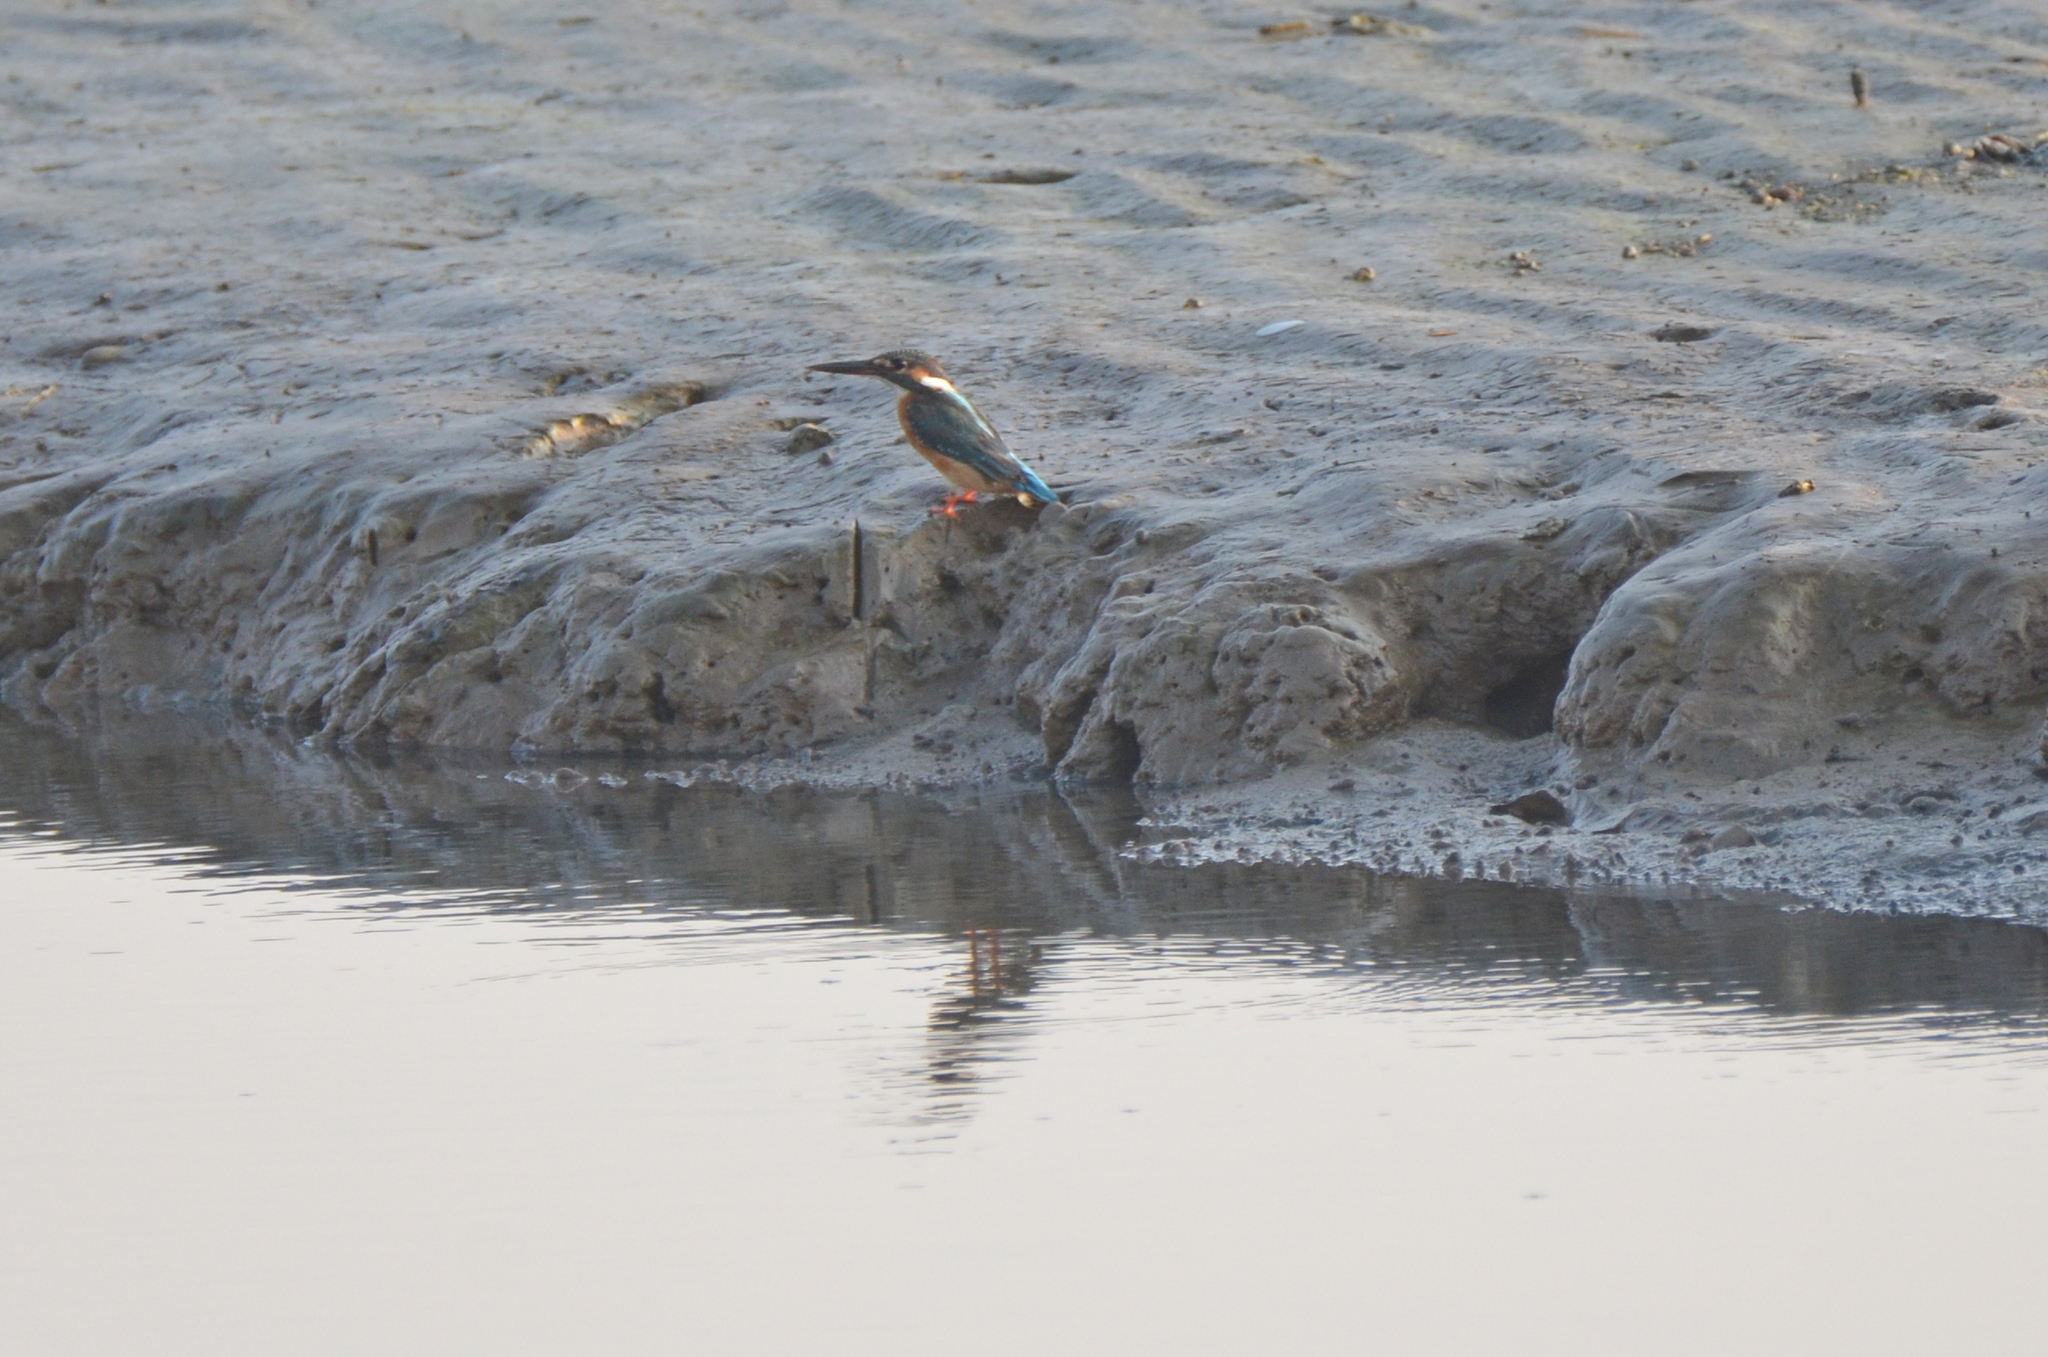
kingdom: Animalia
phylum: Chordata
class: Aves
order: Coraciiformes
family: Alcedinidae
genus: Alcedo
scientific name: Alcedo atthis
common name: Common kingfisher
